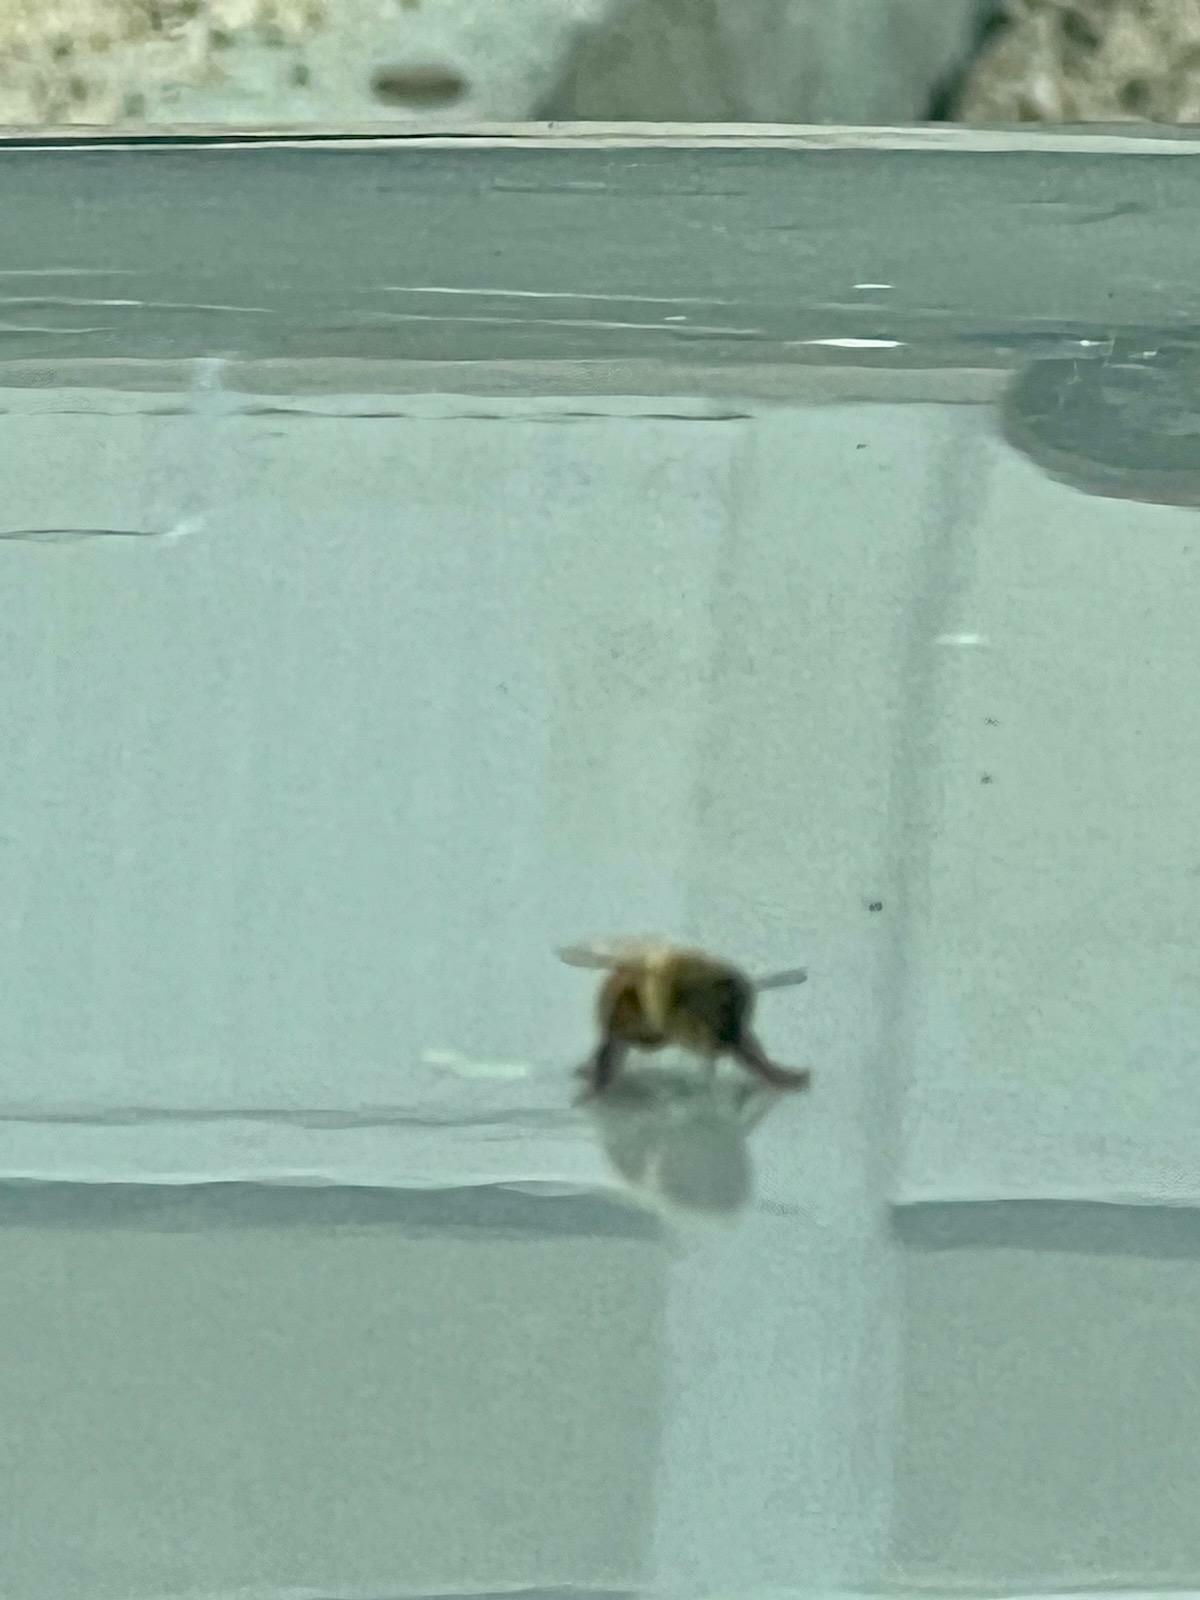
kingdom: Animalia
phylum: Arthropoda
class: Insecta
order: Hymenoptera
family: Apidae
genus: Apis
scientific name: Apis mellifera
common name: Honey bee
